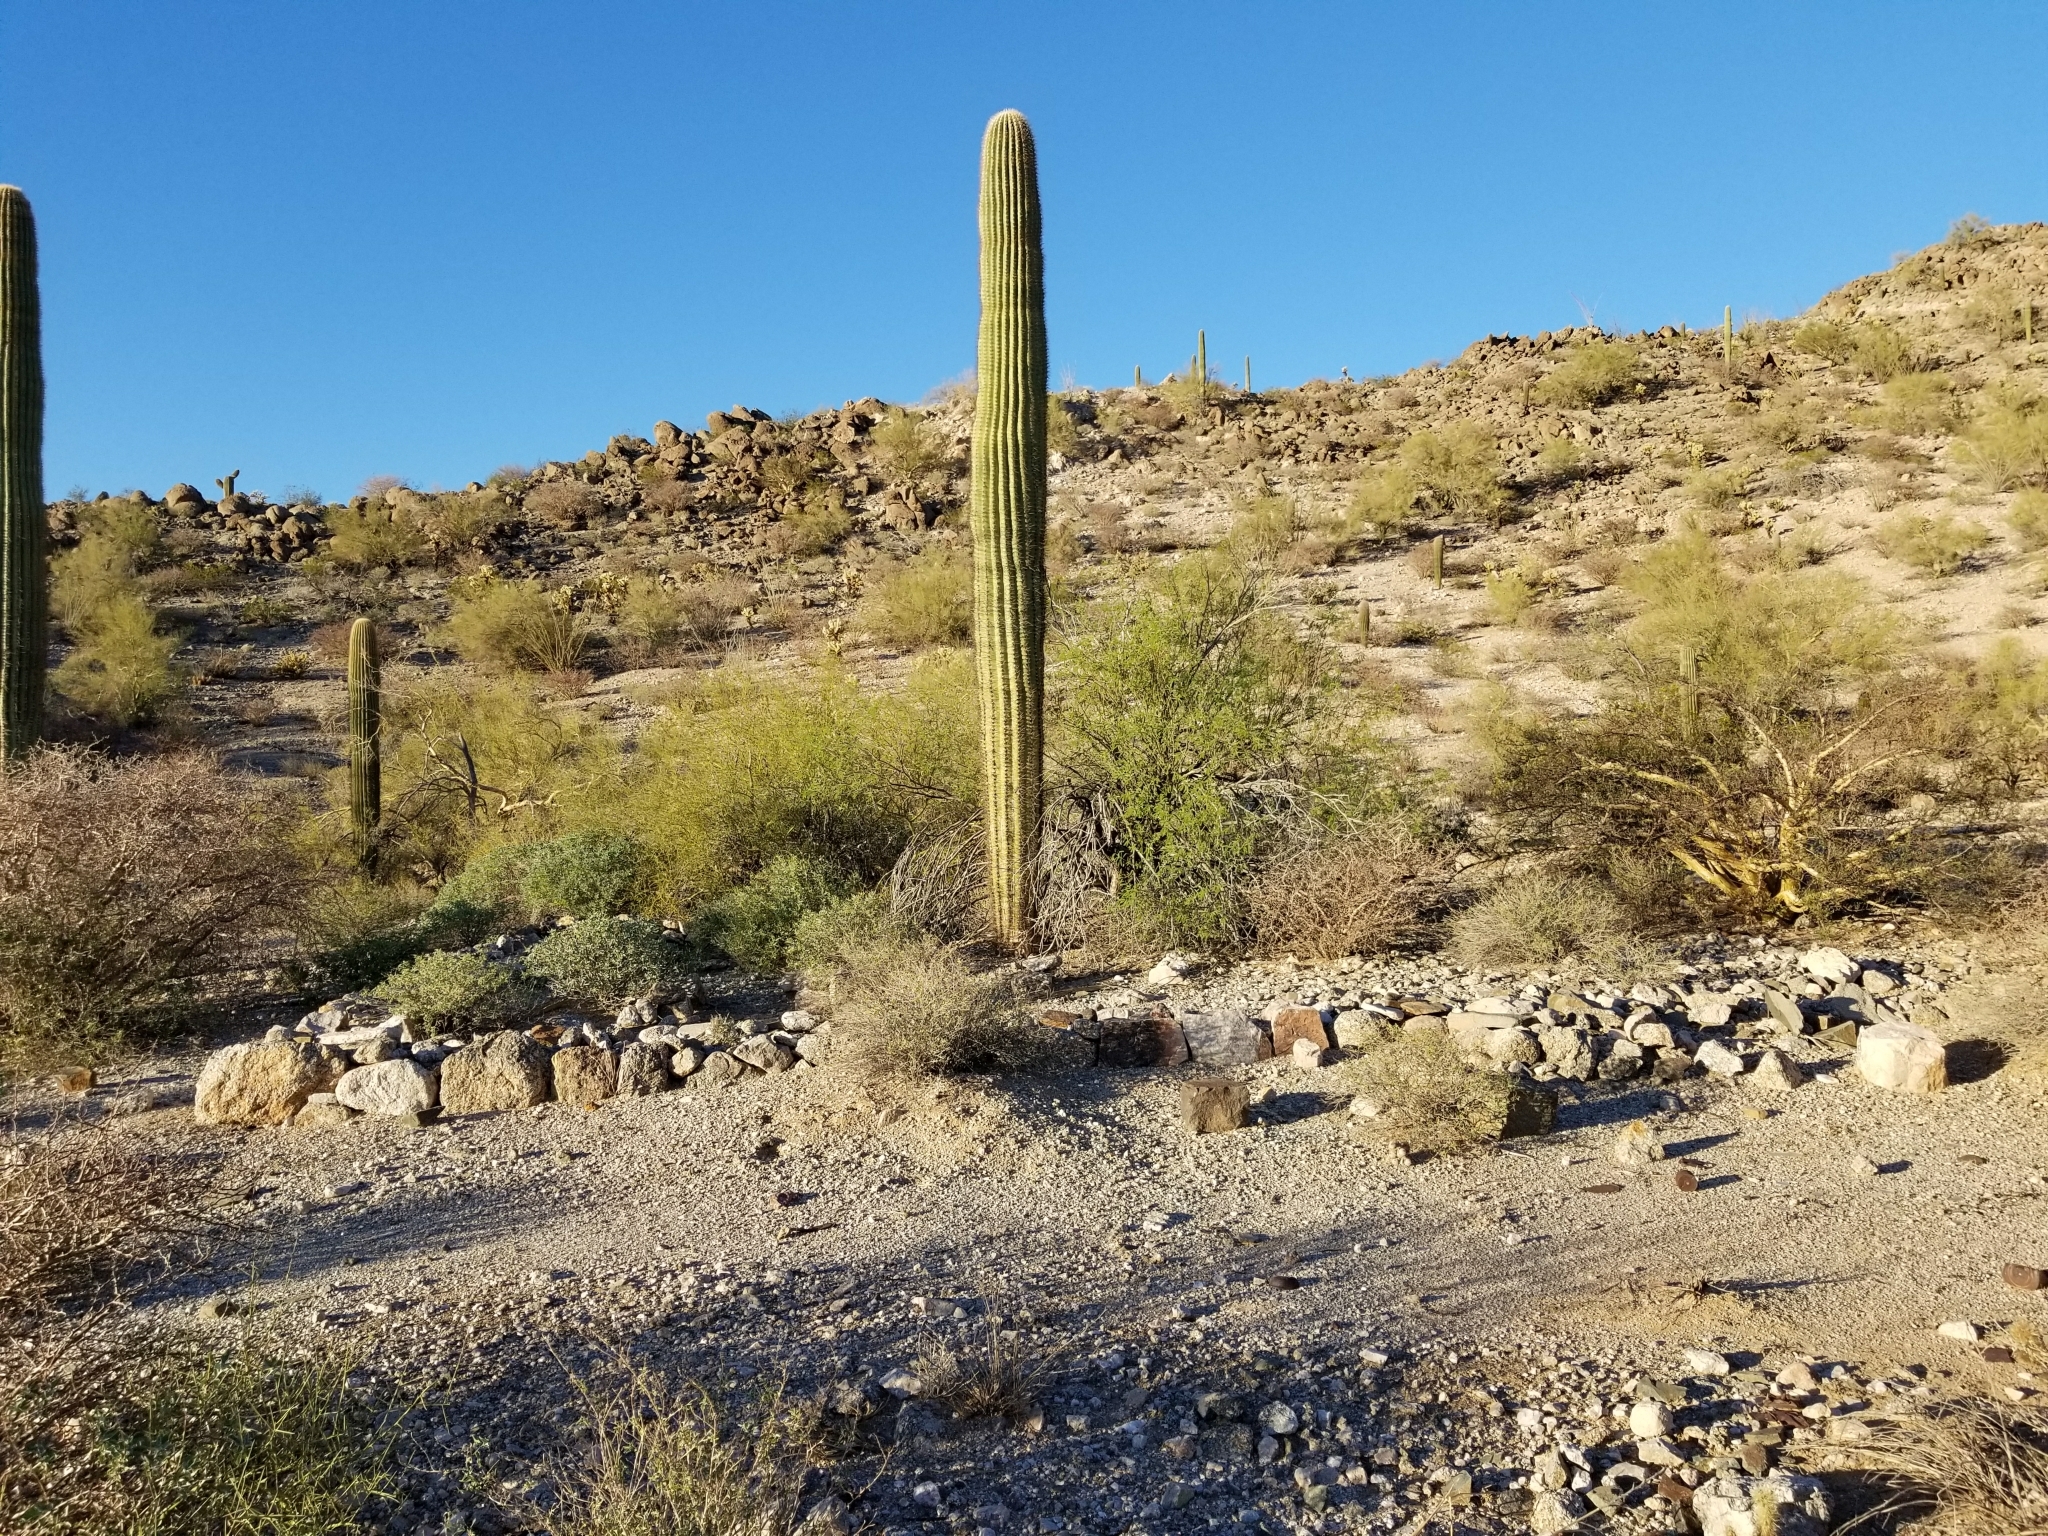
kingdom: Plantae
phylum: Tracheophyta
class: Magnoliopsida
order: Caryophyllales
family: Cactaceae
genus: Carnegiea
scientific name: Carnegiea gigantea
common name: Saguaro
